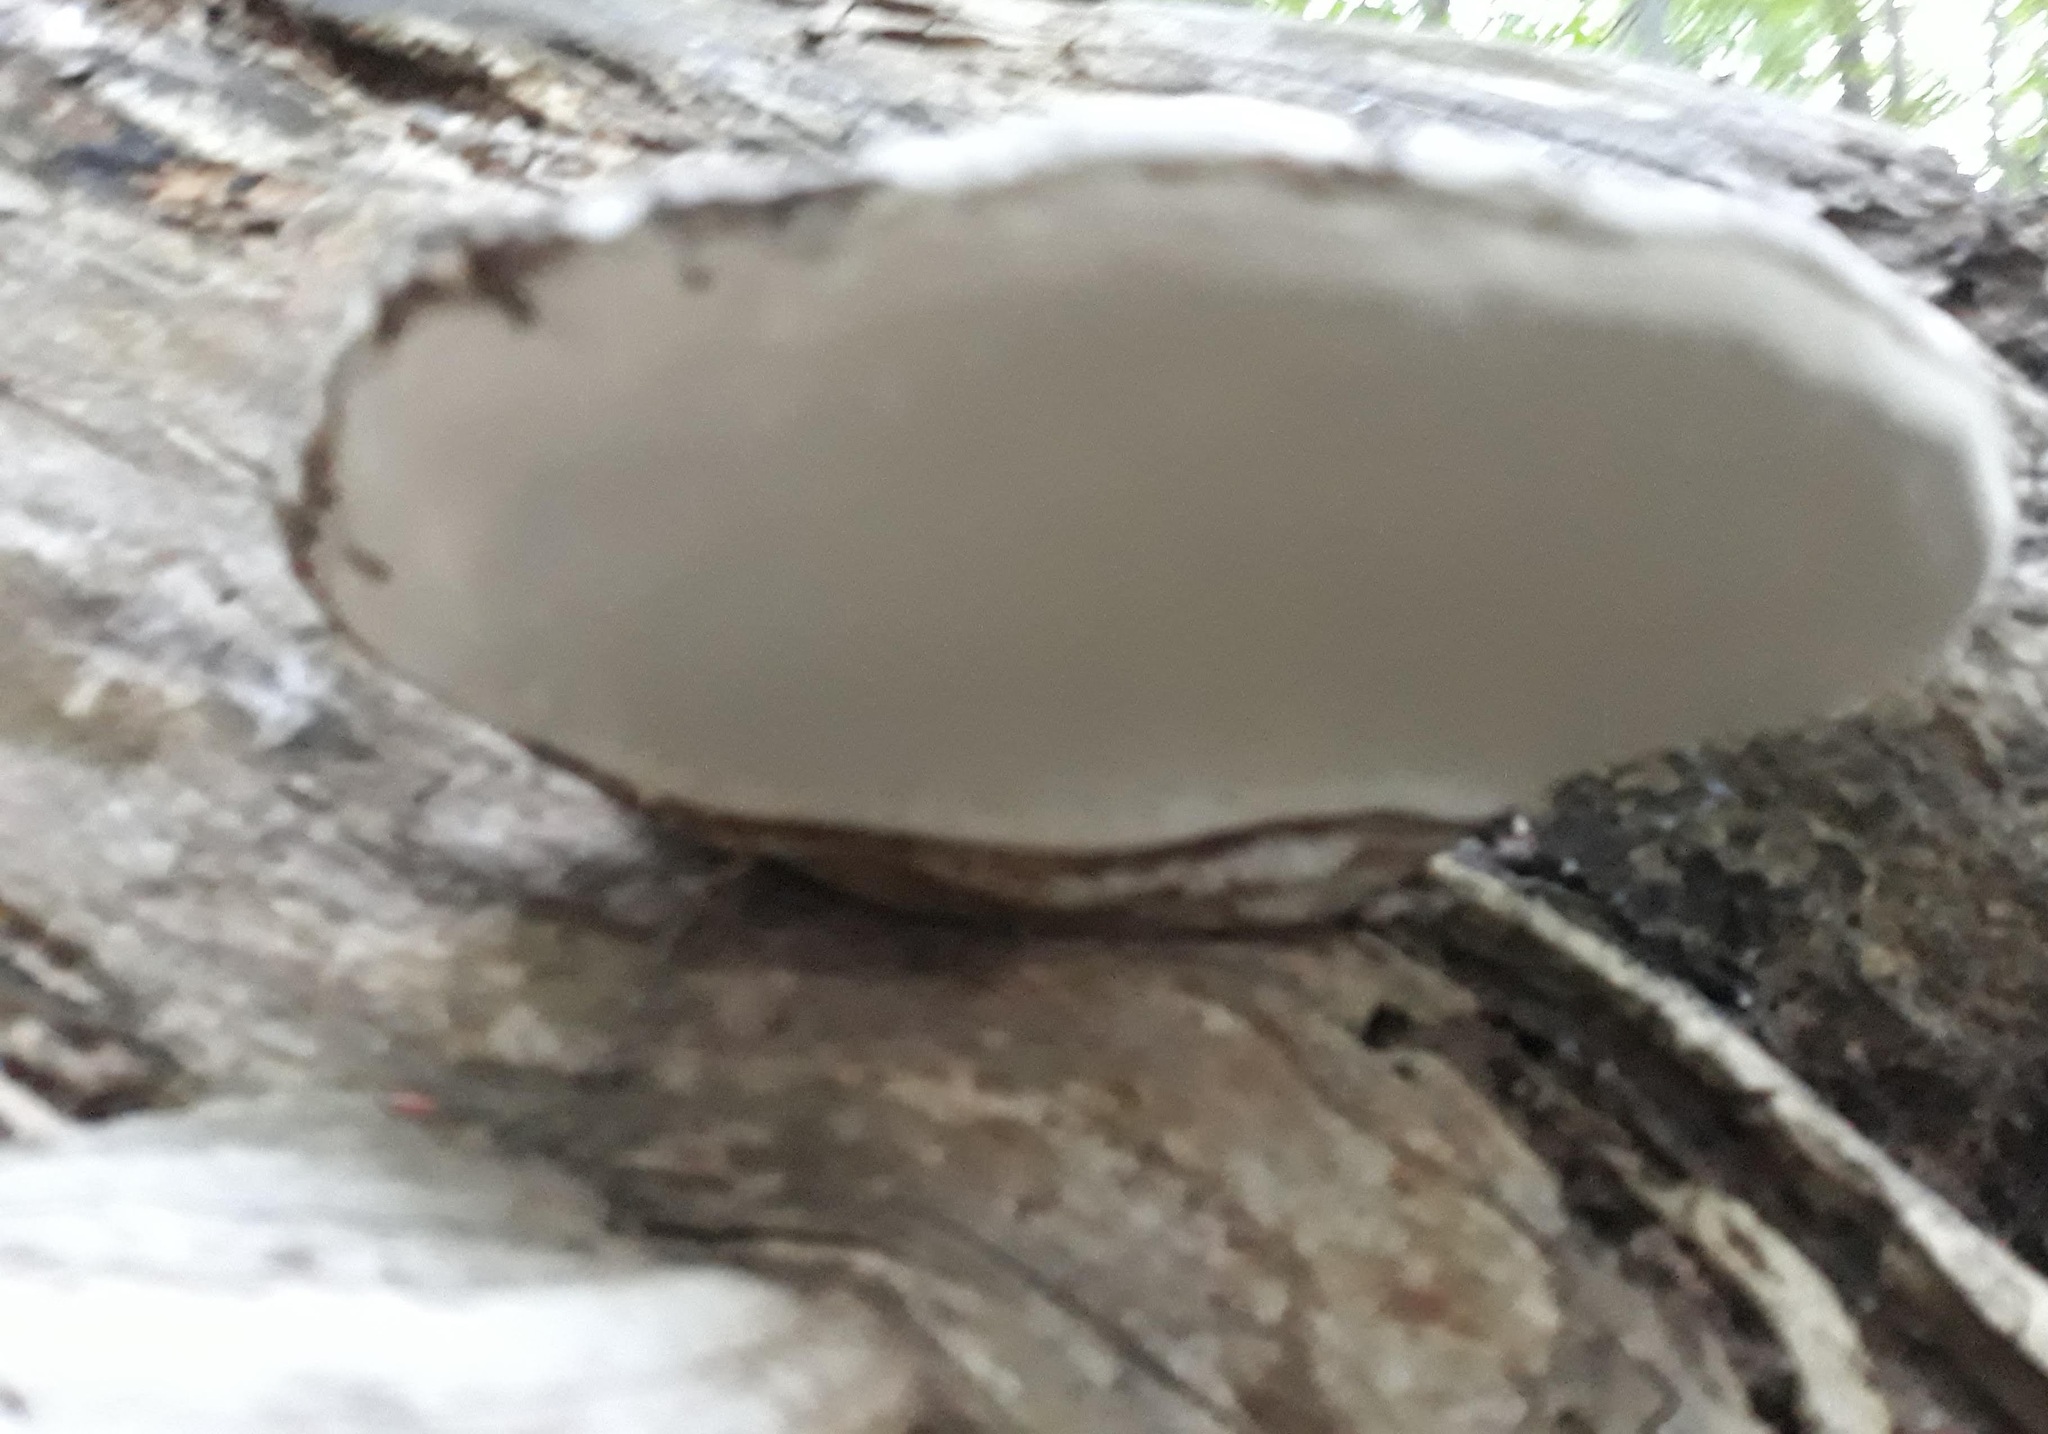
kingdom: Fungi
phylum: Basidiomycota
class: Agaricomycetes
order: Polyporales
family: Polyporaceae
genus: Ganoderma
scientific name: Ganoderma applanatum
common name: Artist's bracket
